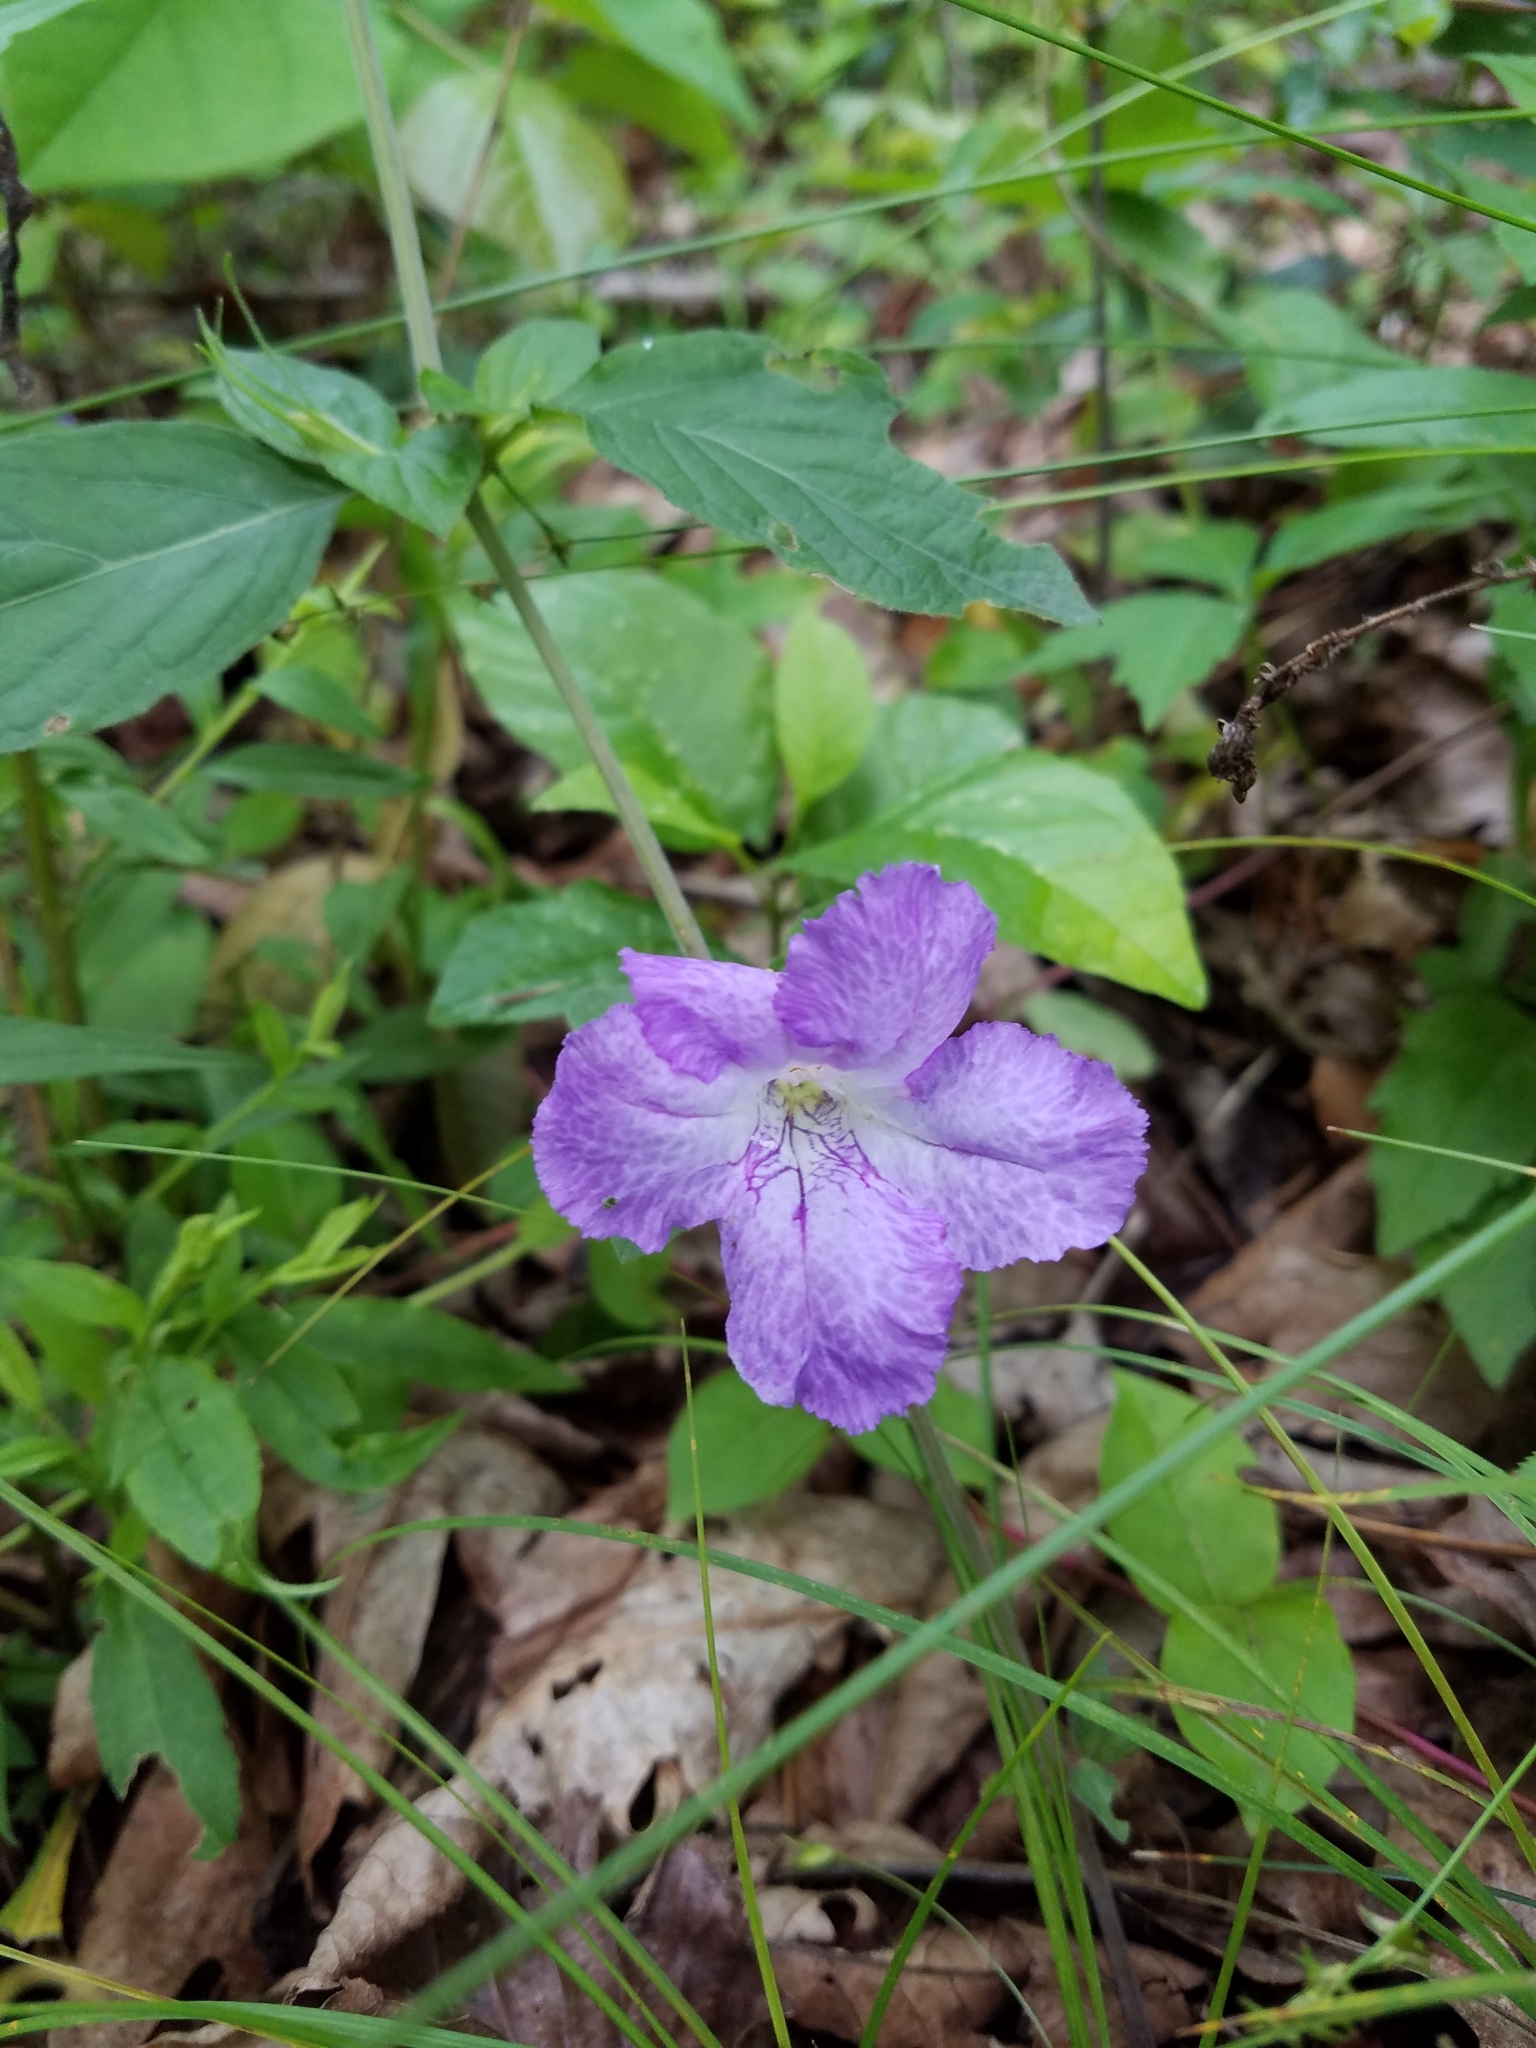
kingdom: Plantae
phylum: Tracheophyta
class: Magnoliopsida
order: Lamiales
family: Acanthaceae
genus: Ruellia
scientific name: Ruellia purshiana
